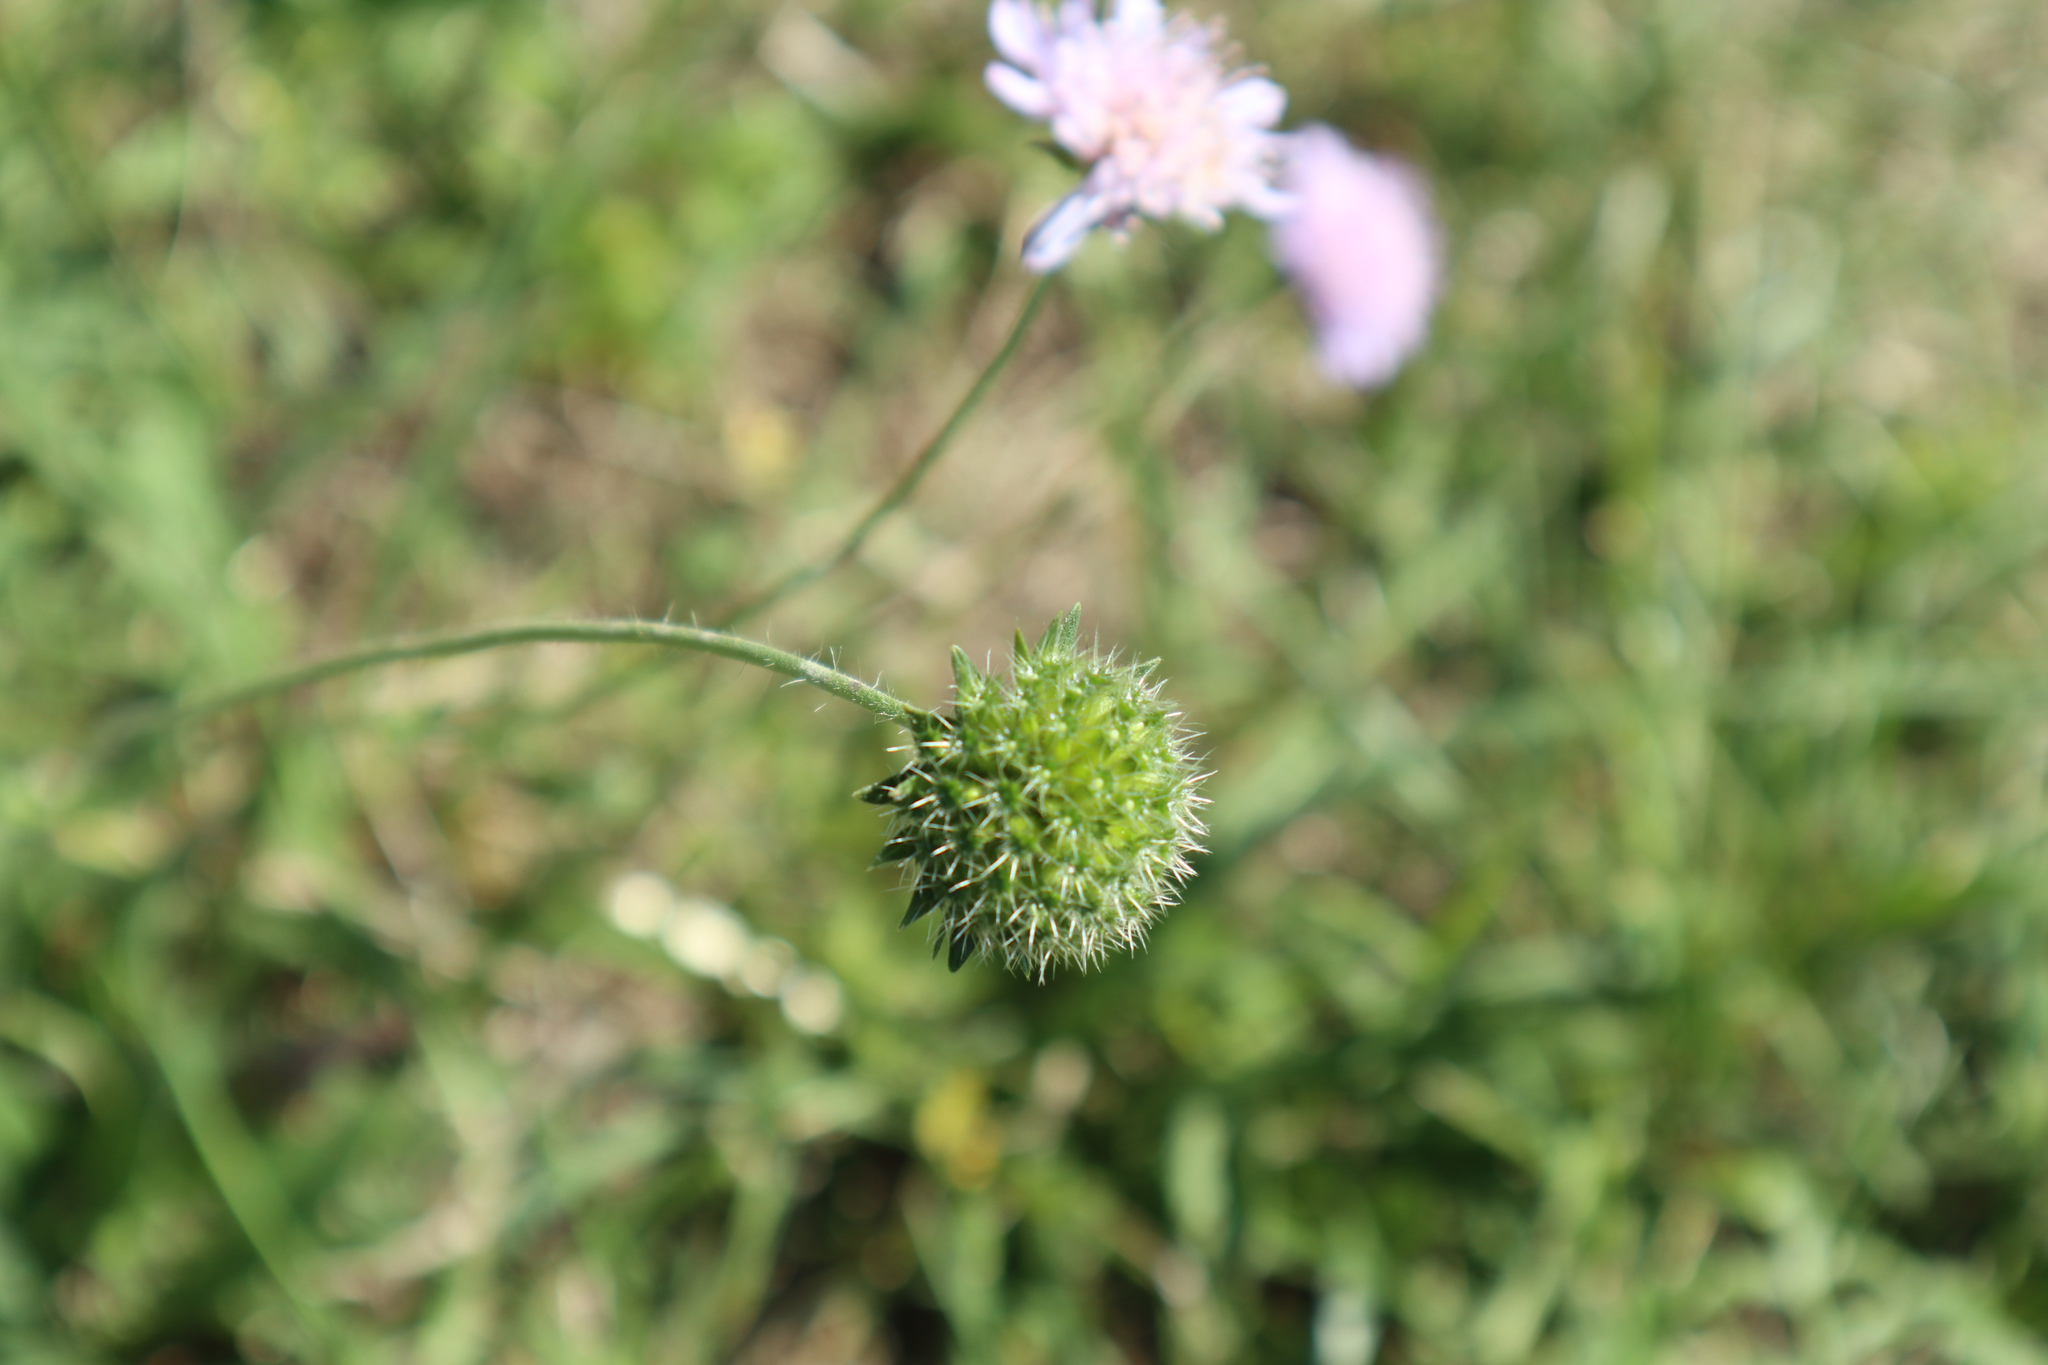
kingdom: Plantae
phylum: Tracheophyta
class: Magnoliopsida
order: Dipsacales
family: Caprifoliaceae
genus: Knautia
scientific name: Knautia arvensis
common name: Field scabiosa
